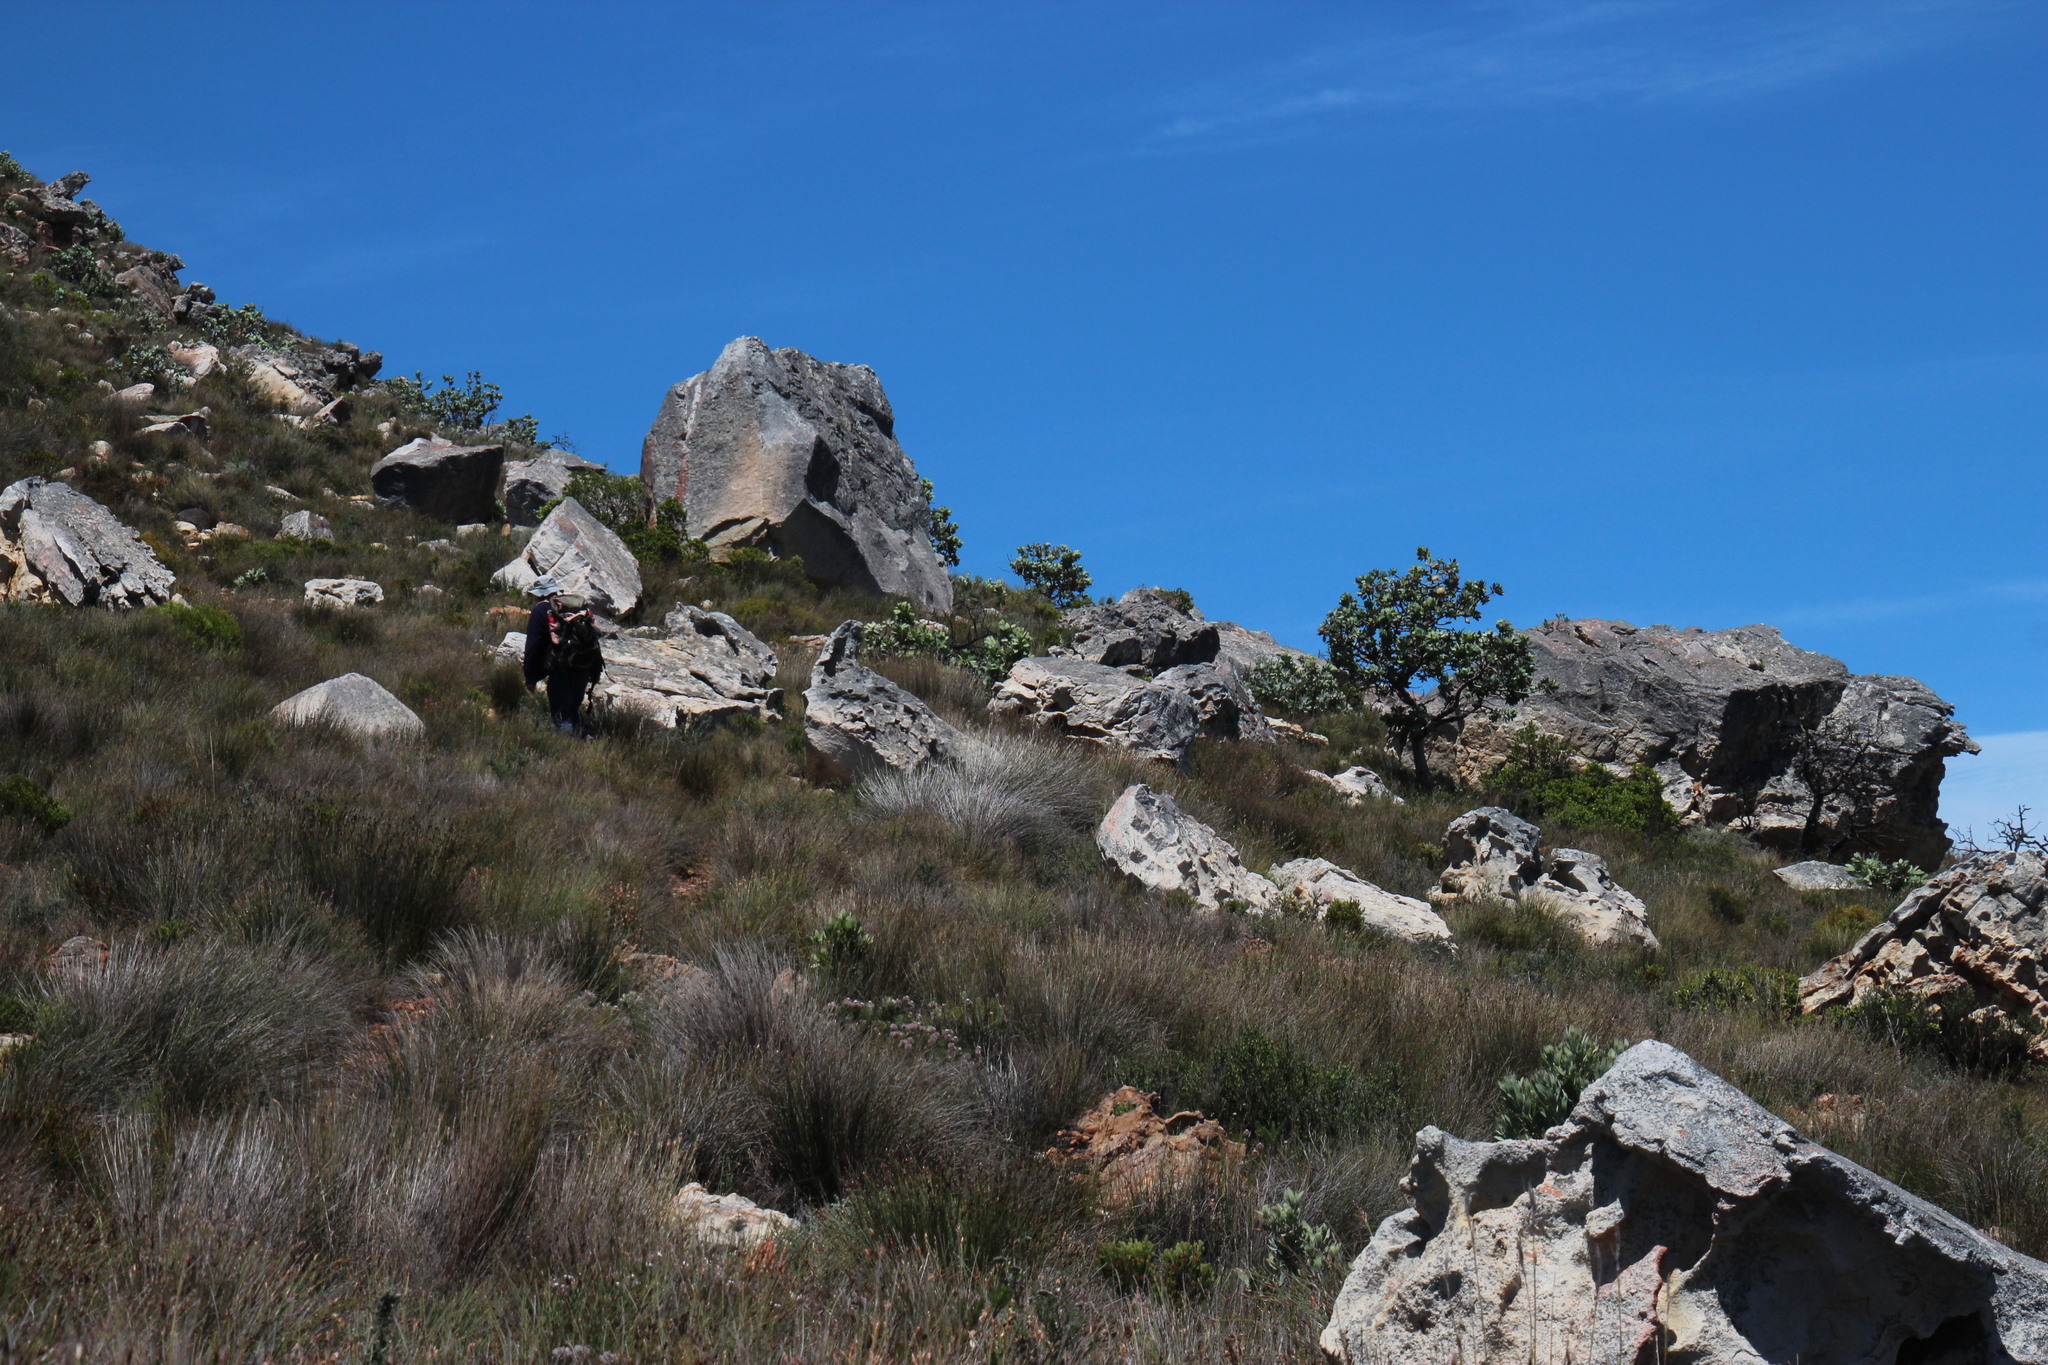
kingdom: Plantae
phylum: Tracheophyta
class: Magnoliopsida
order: Proteales
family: Proteaceae
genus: Protea
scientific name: Protea nitida
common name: Tree protea
